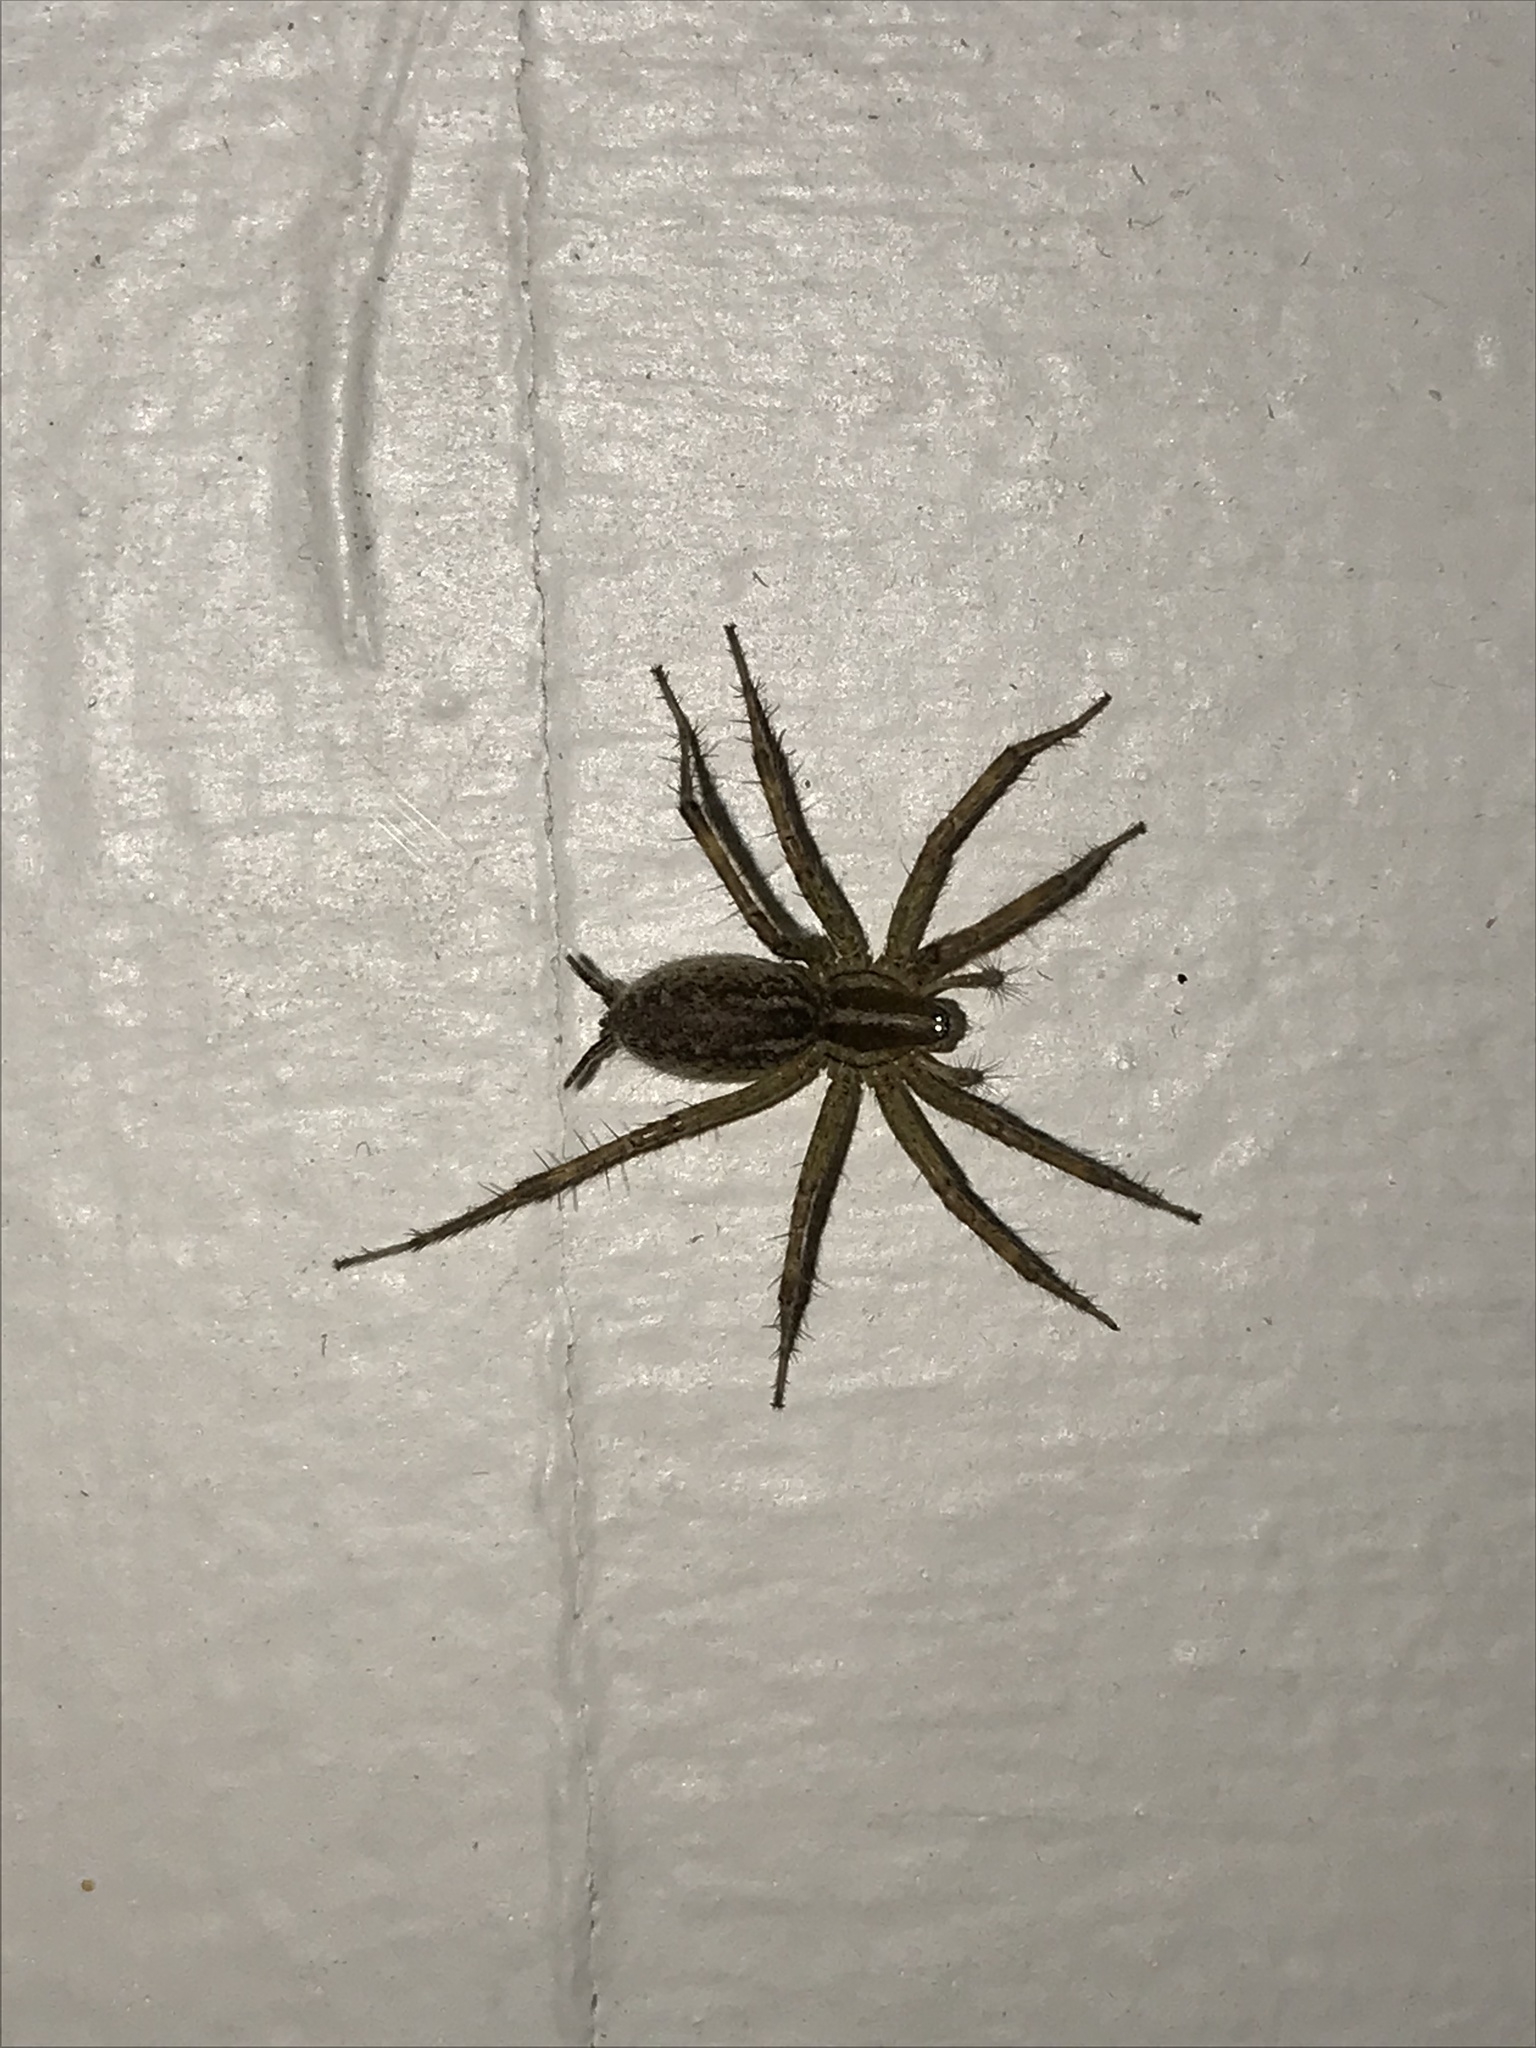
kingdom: Animalia
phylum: Arthropoda
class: Arachnida
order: Araneae
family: Agelenidae
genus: Agelenopsis
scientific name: Agelenopsis
